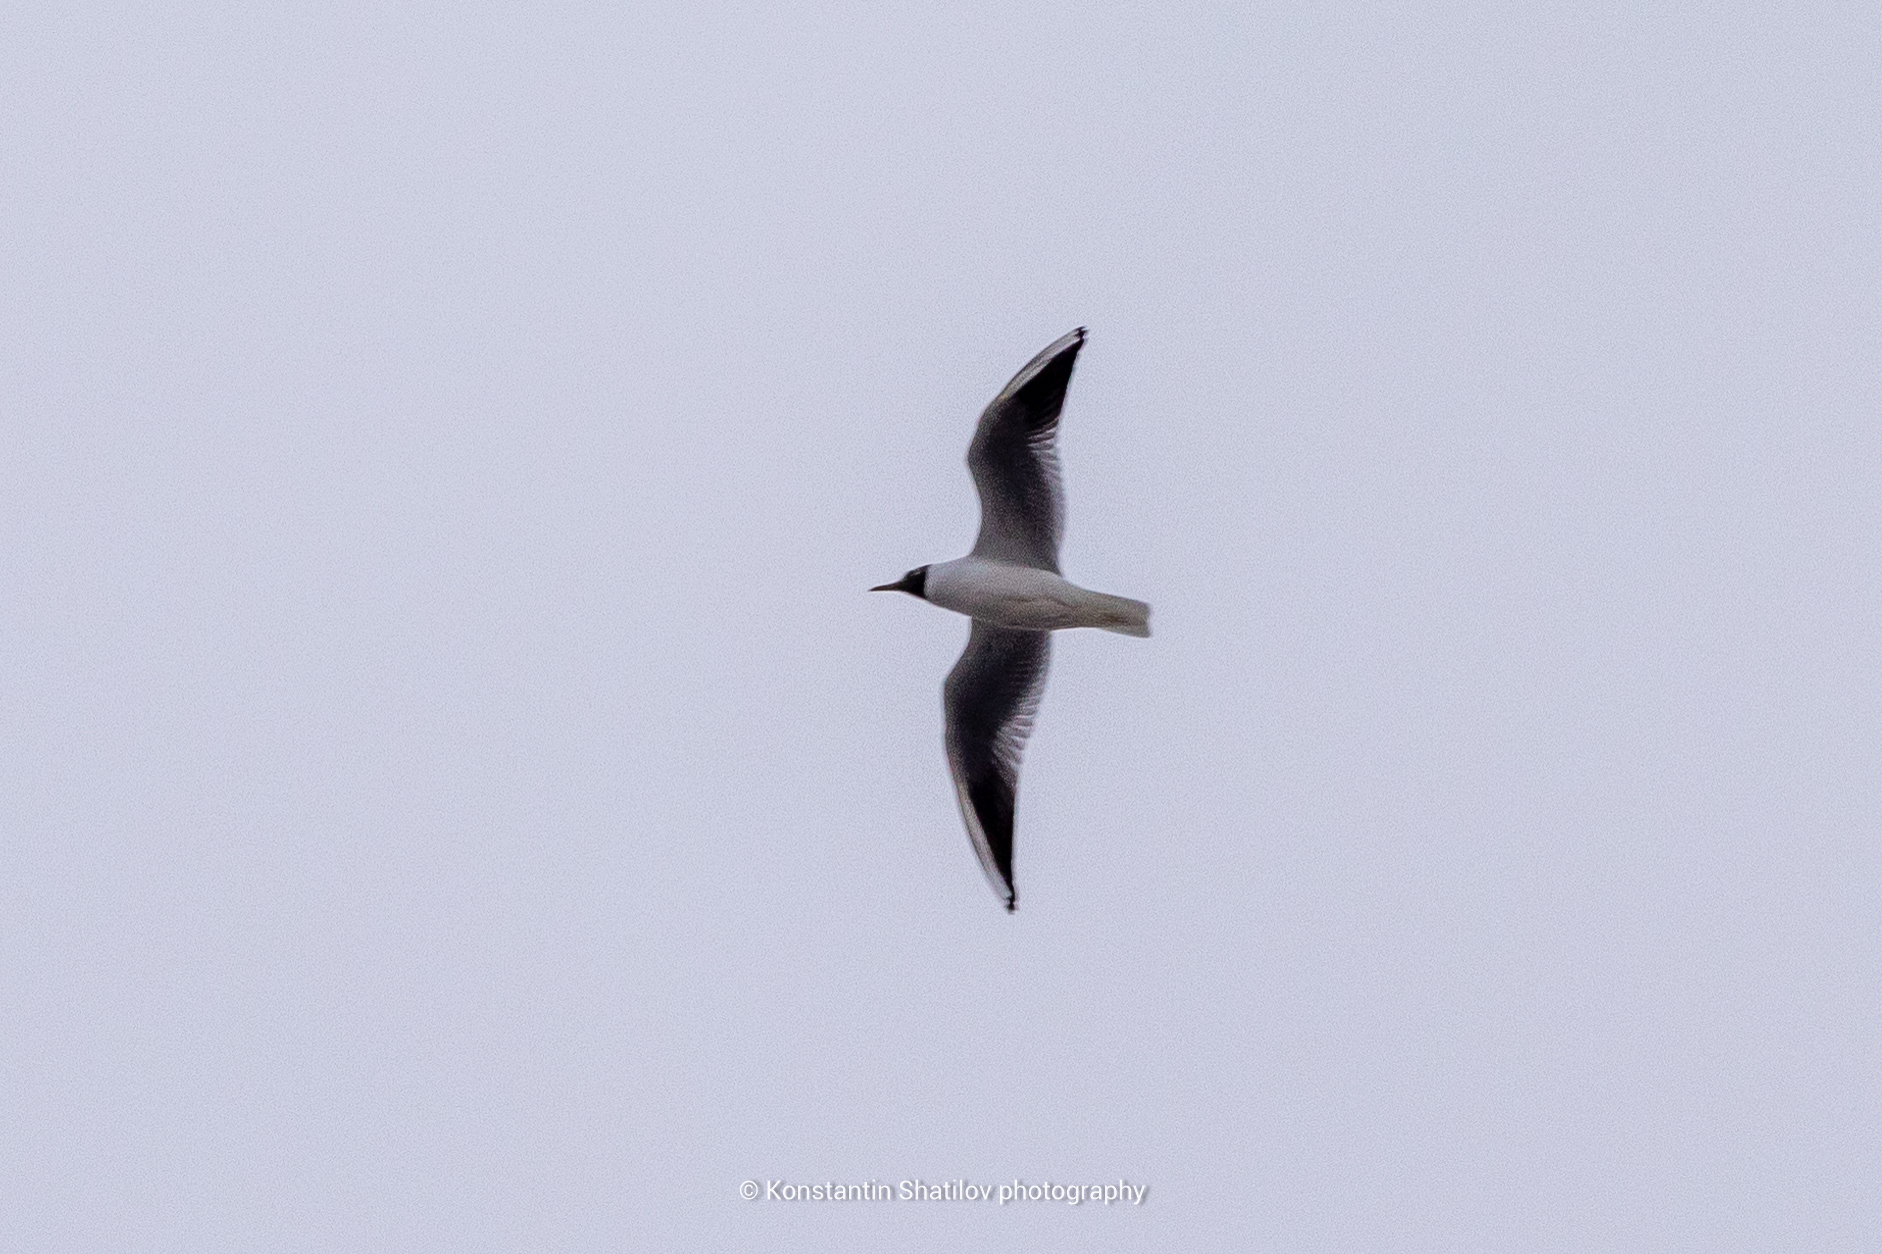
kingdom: Animalia
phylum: Chordata
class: Aves
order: Charadriiformes
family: Laridae
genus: Chroicocephalus
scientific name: Chroicocephalus ridibundus
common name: Black-headed gull
